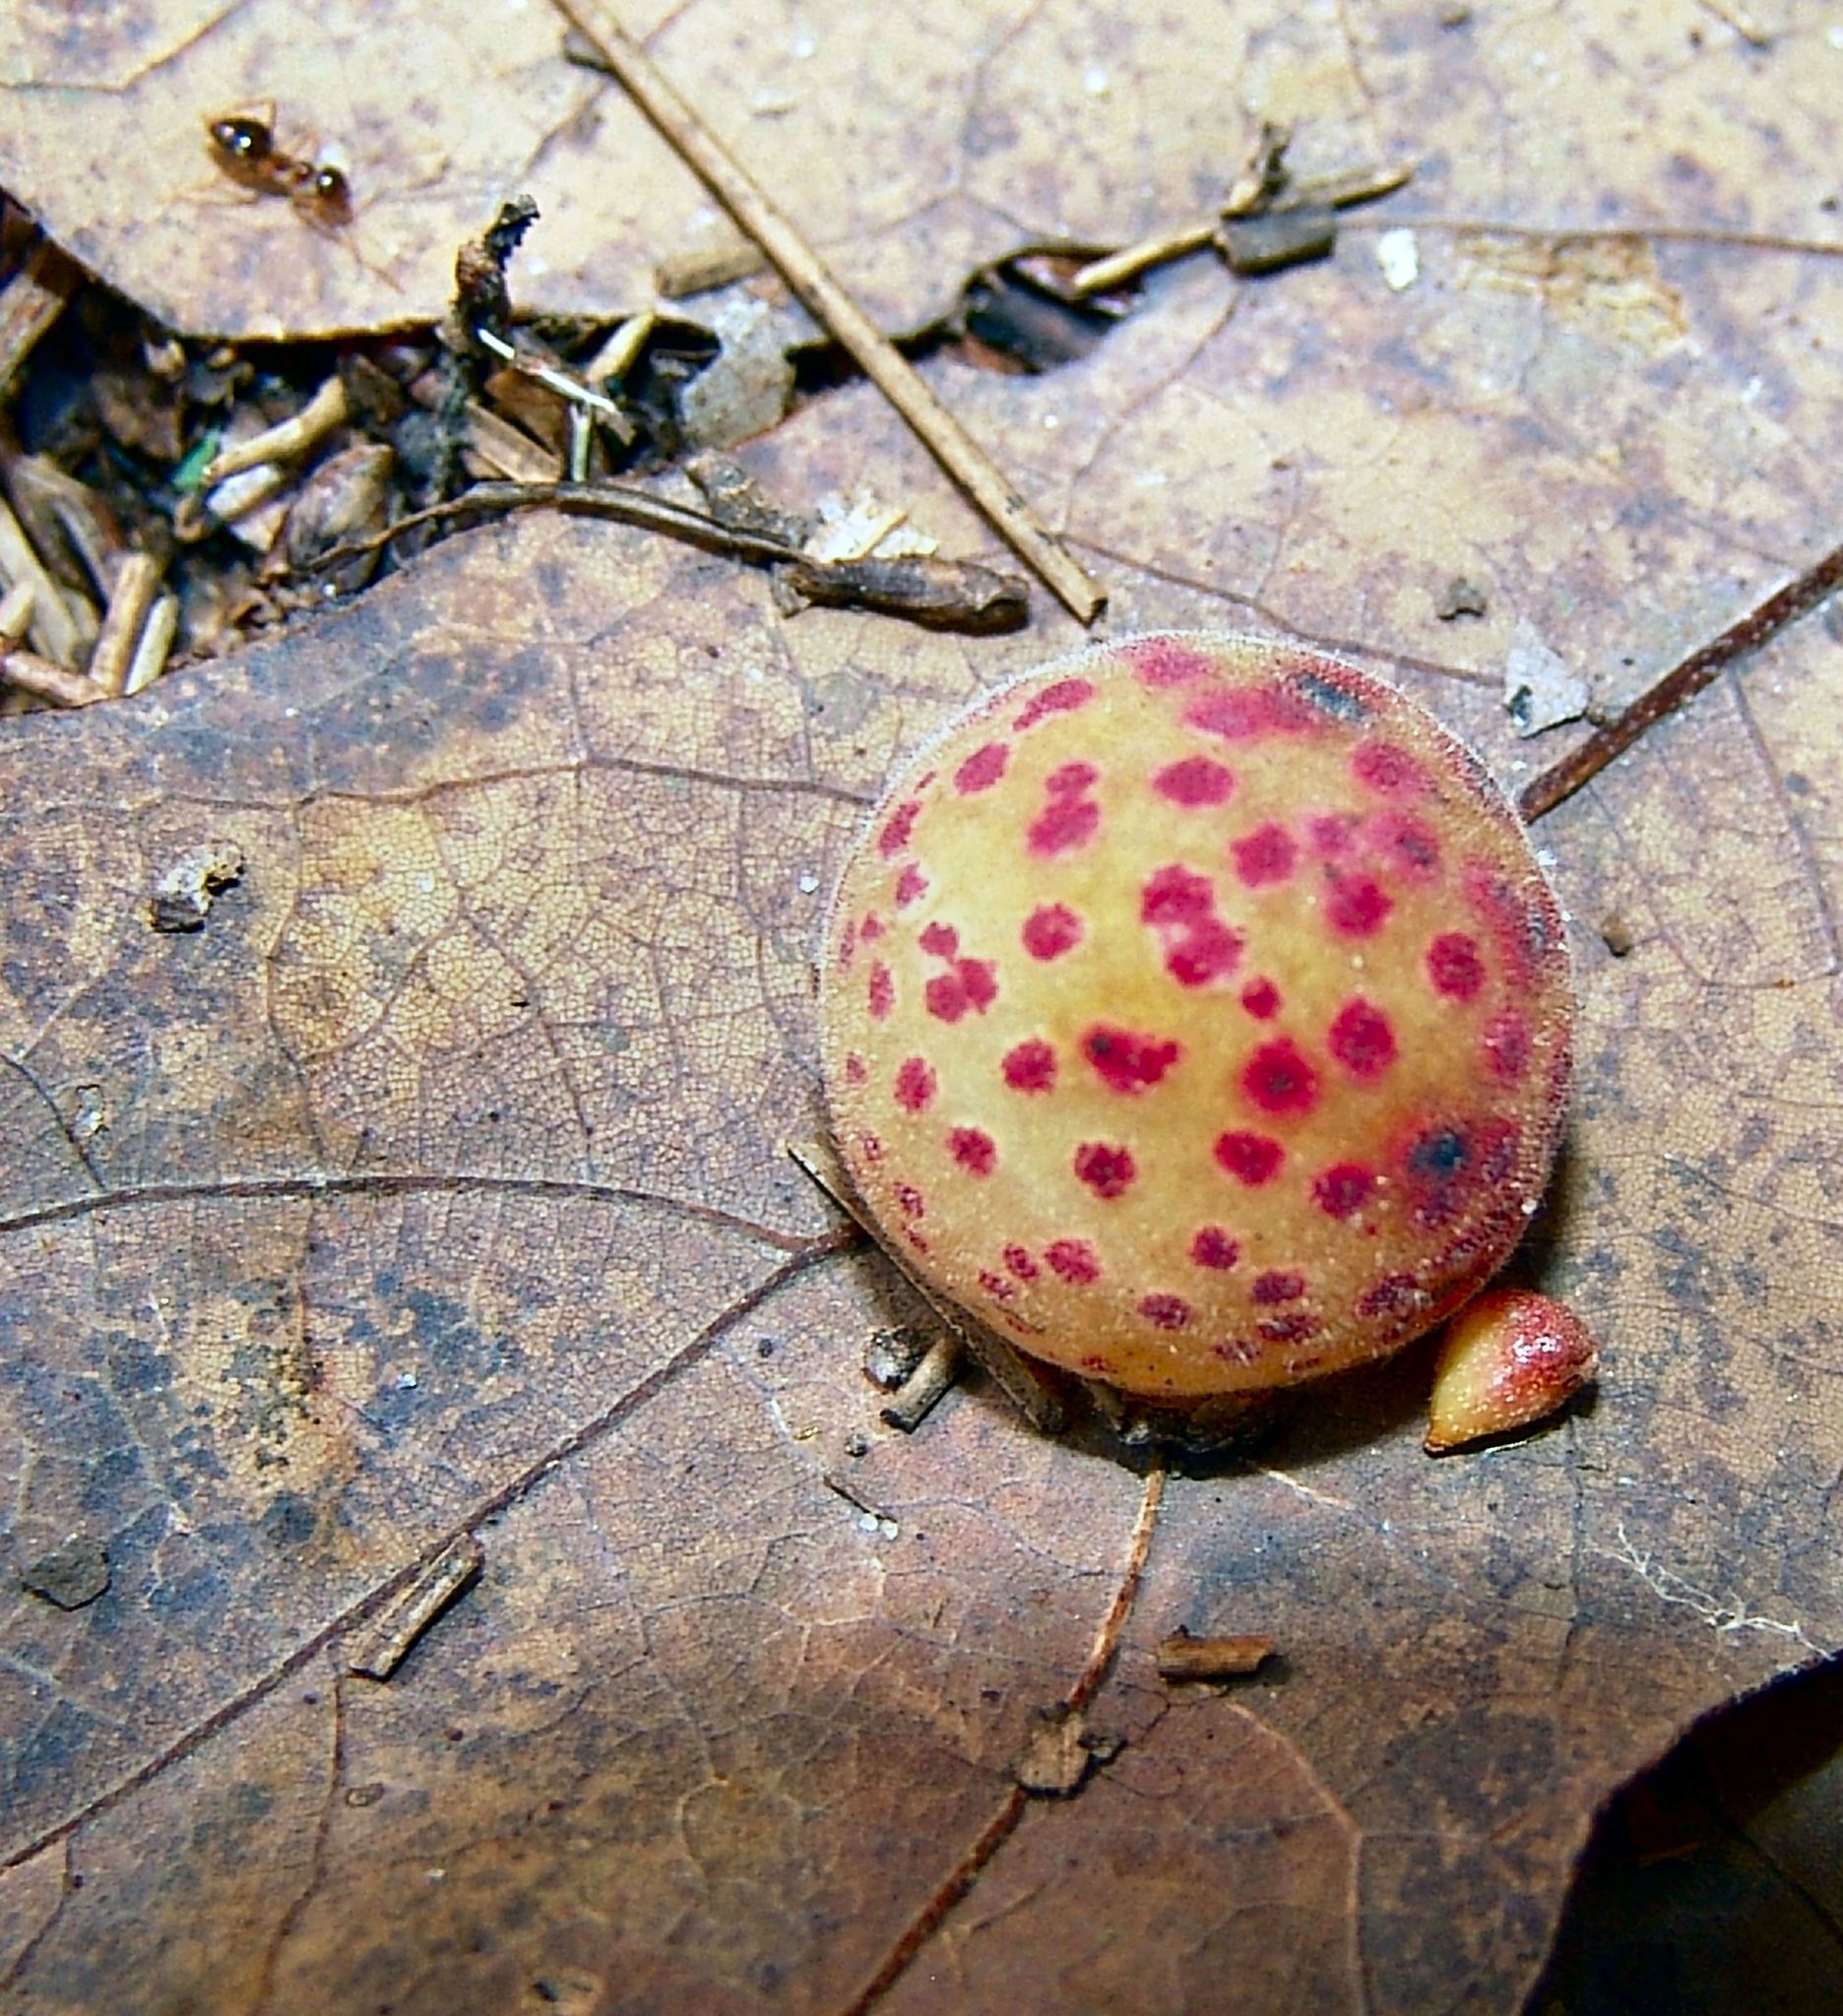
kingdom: Animalia
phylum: Arthropoda
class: Insecta
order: Hymenoptera
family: Cynipidae
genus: Atrusca
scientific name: Atrusca
